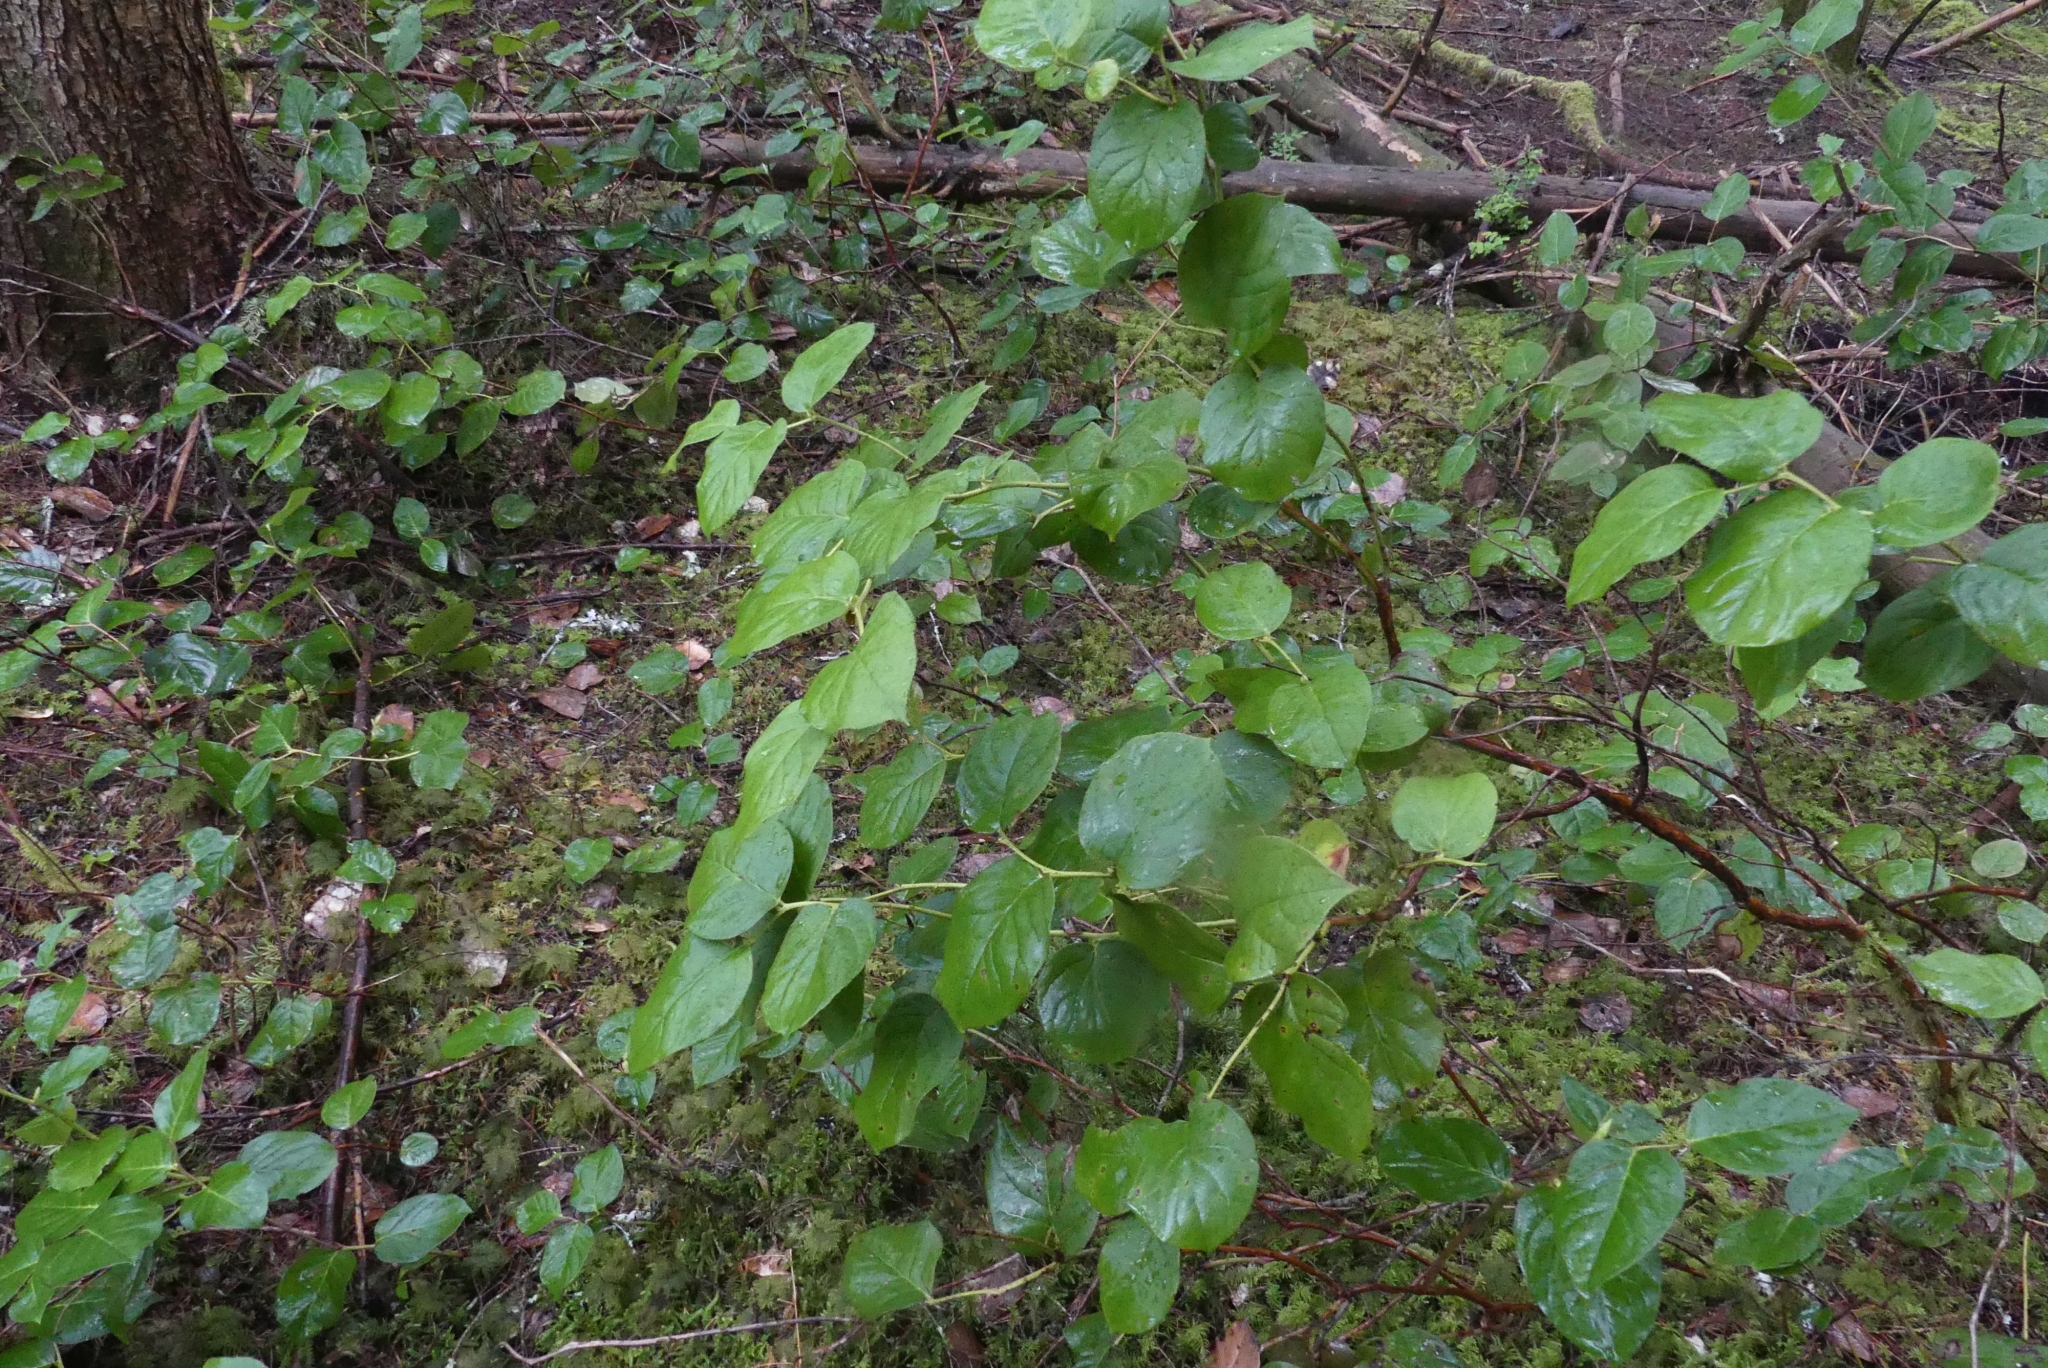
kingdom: Plantae
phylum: Tracheophyta
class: Magnoliopsida
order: Ericales
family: Ericaceae
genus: Gaultheria
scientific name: Gaultheria shallon
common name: Shallon
